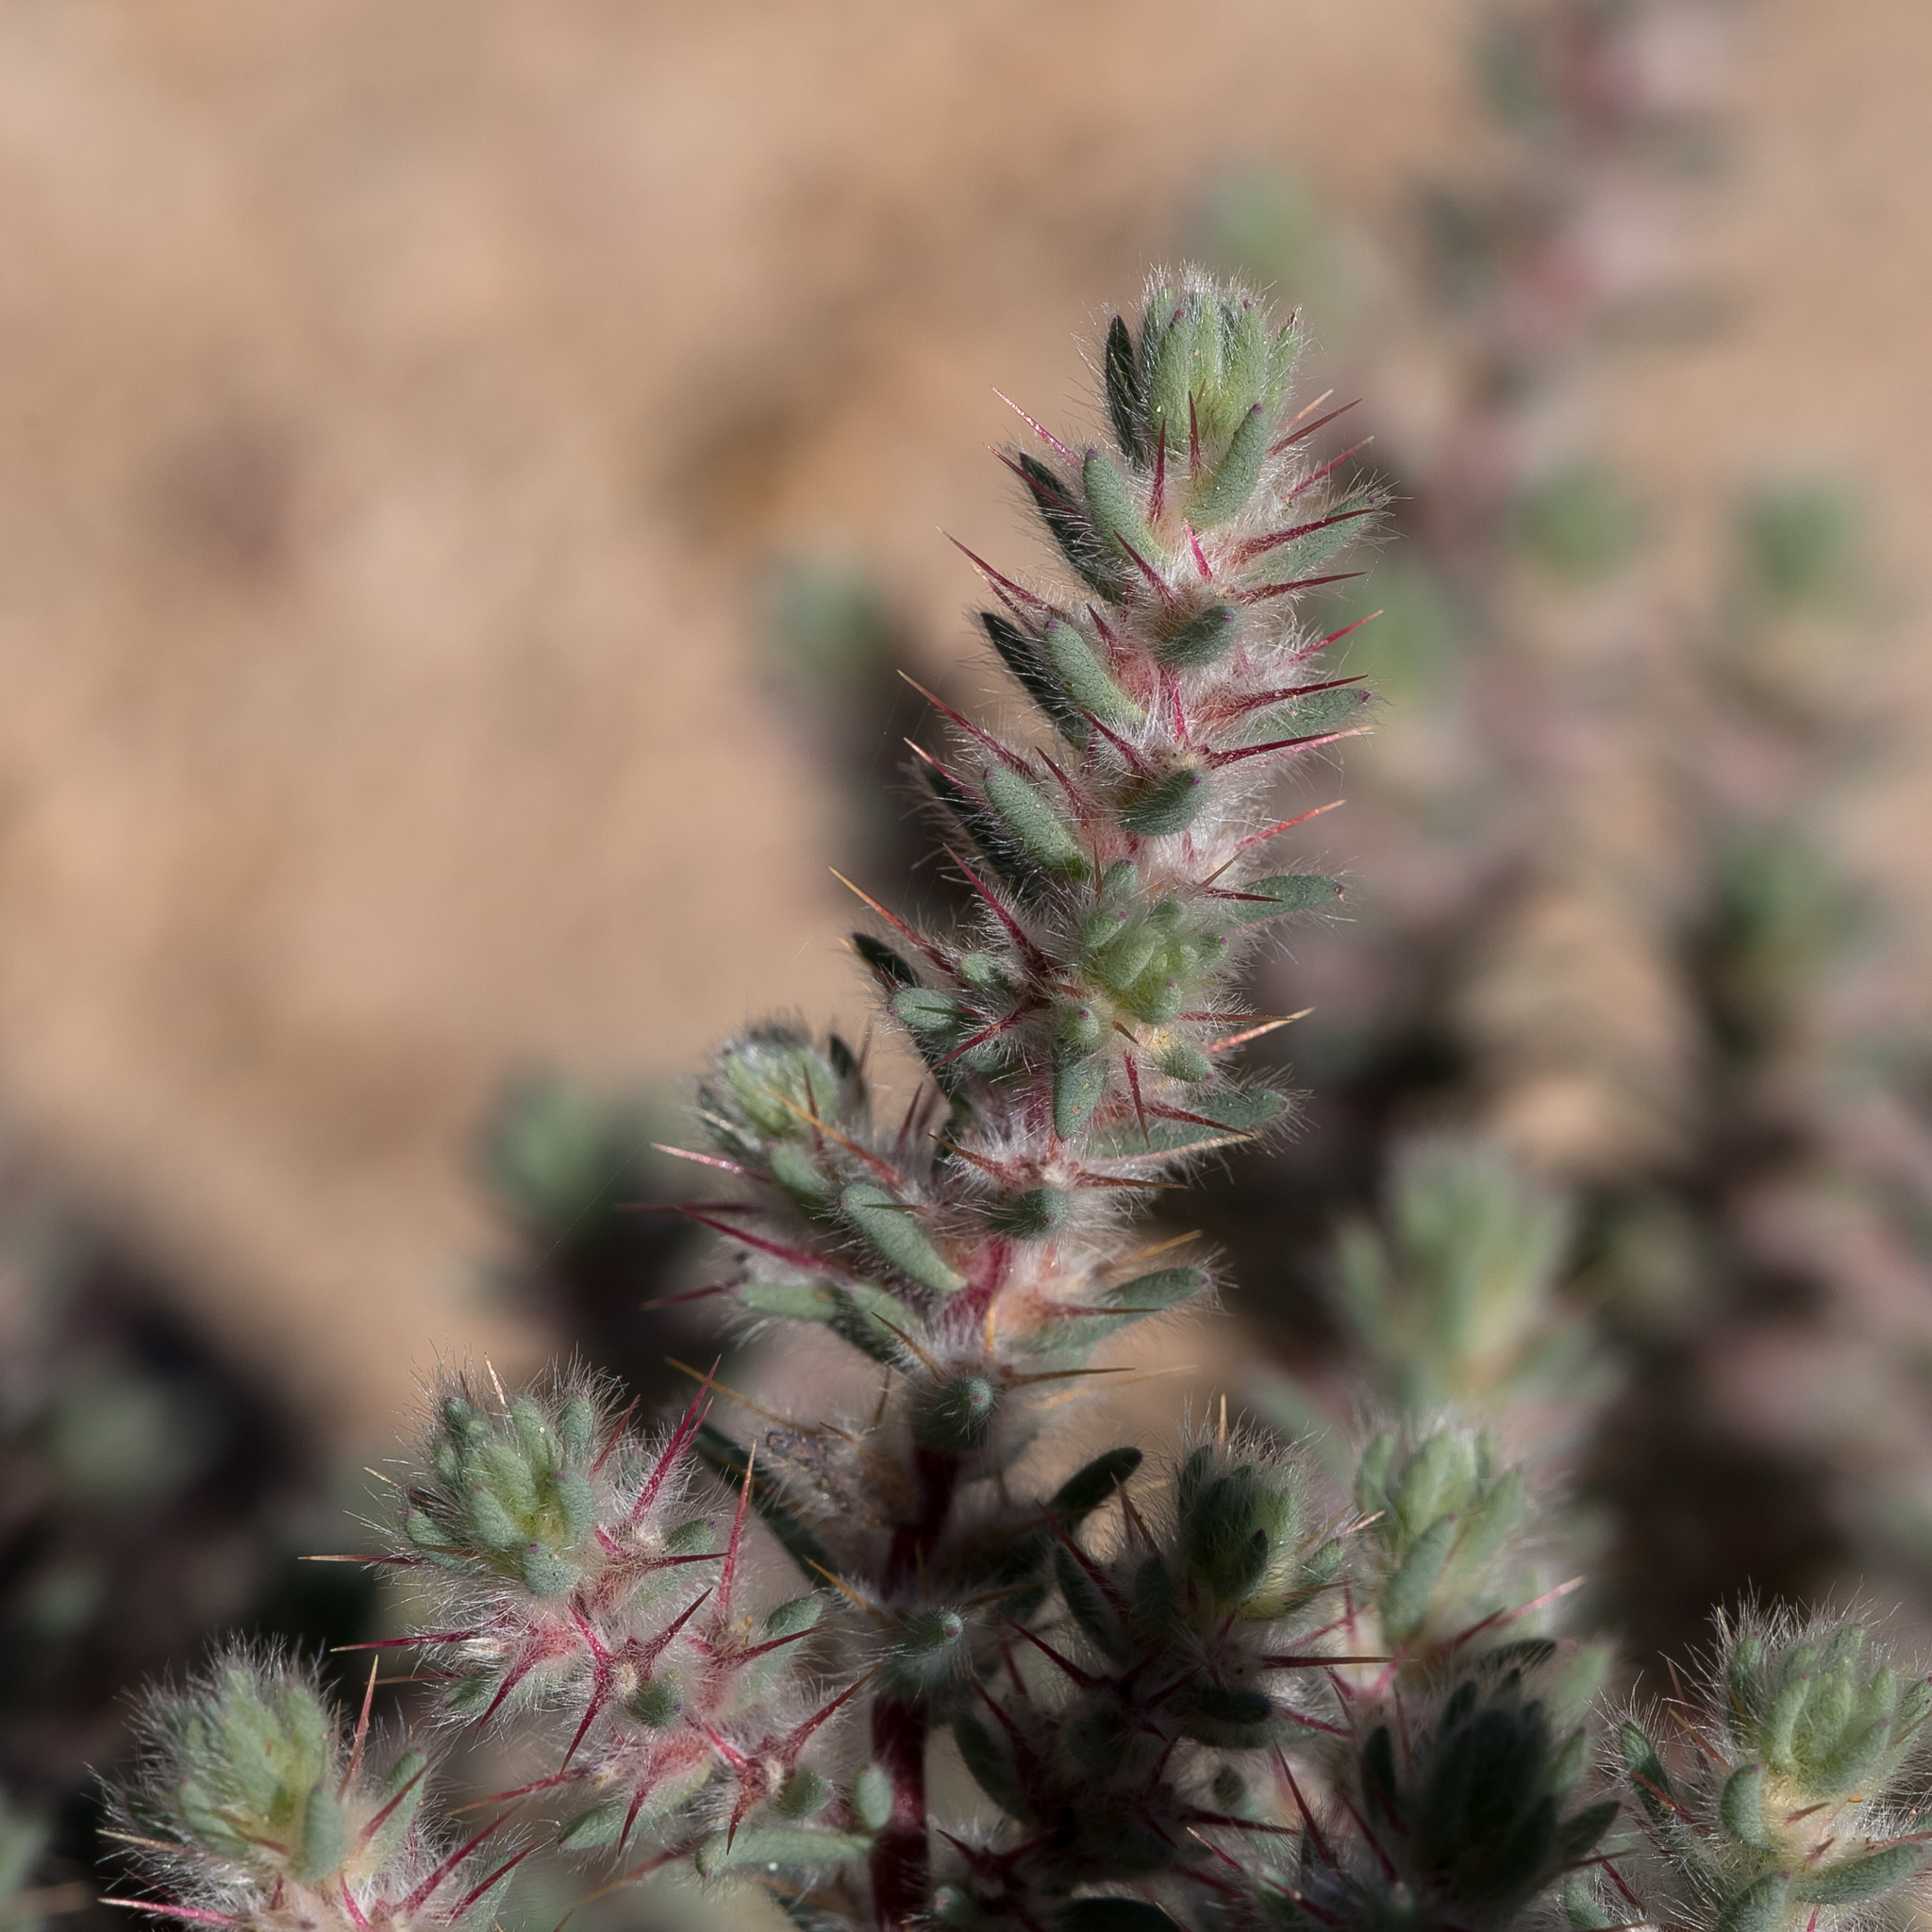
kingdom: Plantae
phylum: Tracheophyta
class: Magnoliopsida
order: Caryophyllales
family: Amaranthaceae
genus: Sclerolaena
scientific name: Sclerolaena lanicuspis
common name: Copperbur
